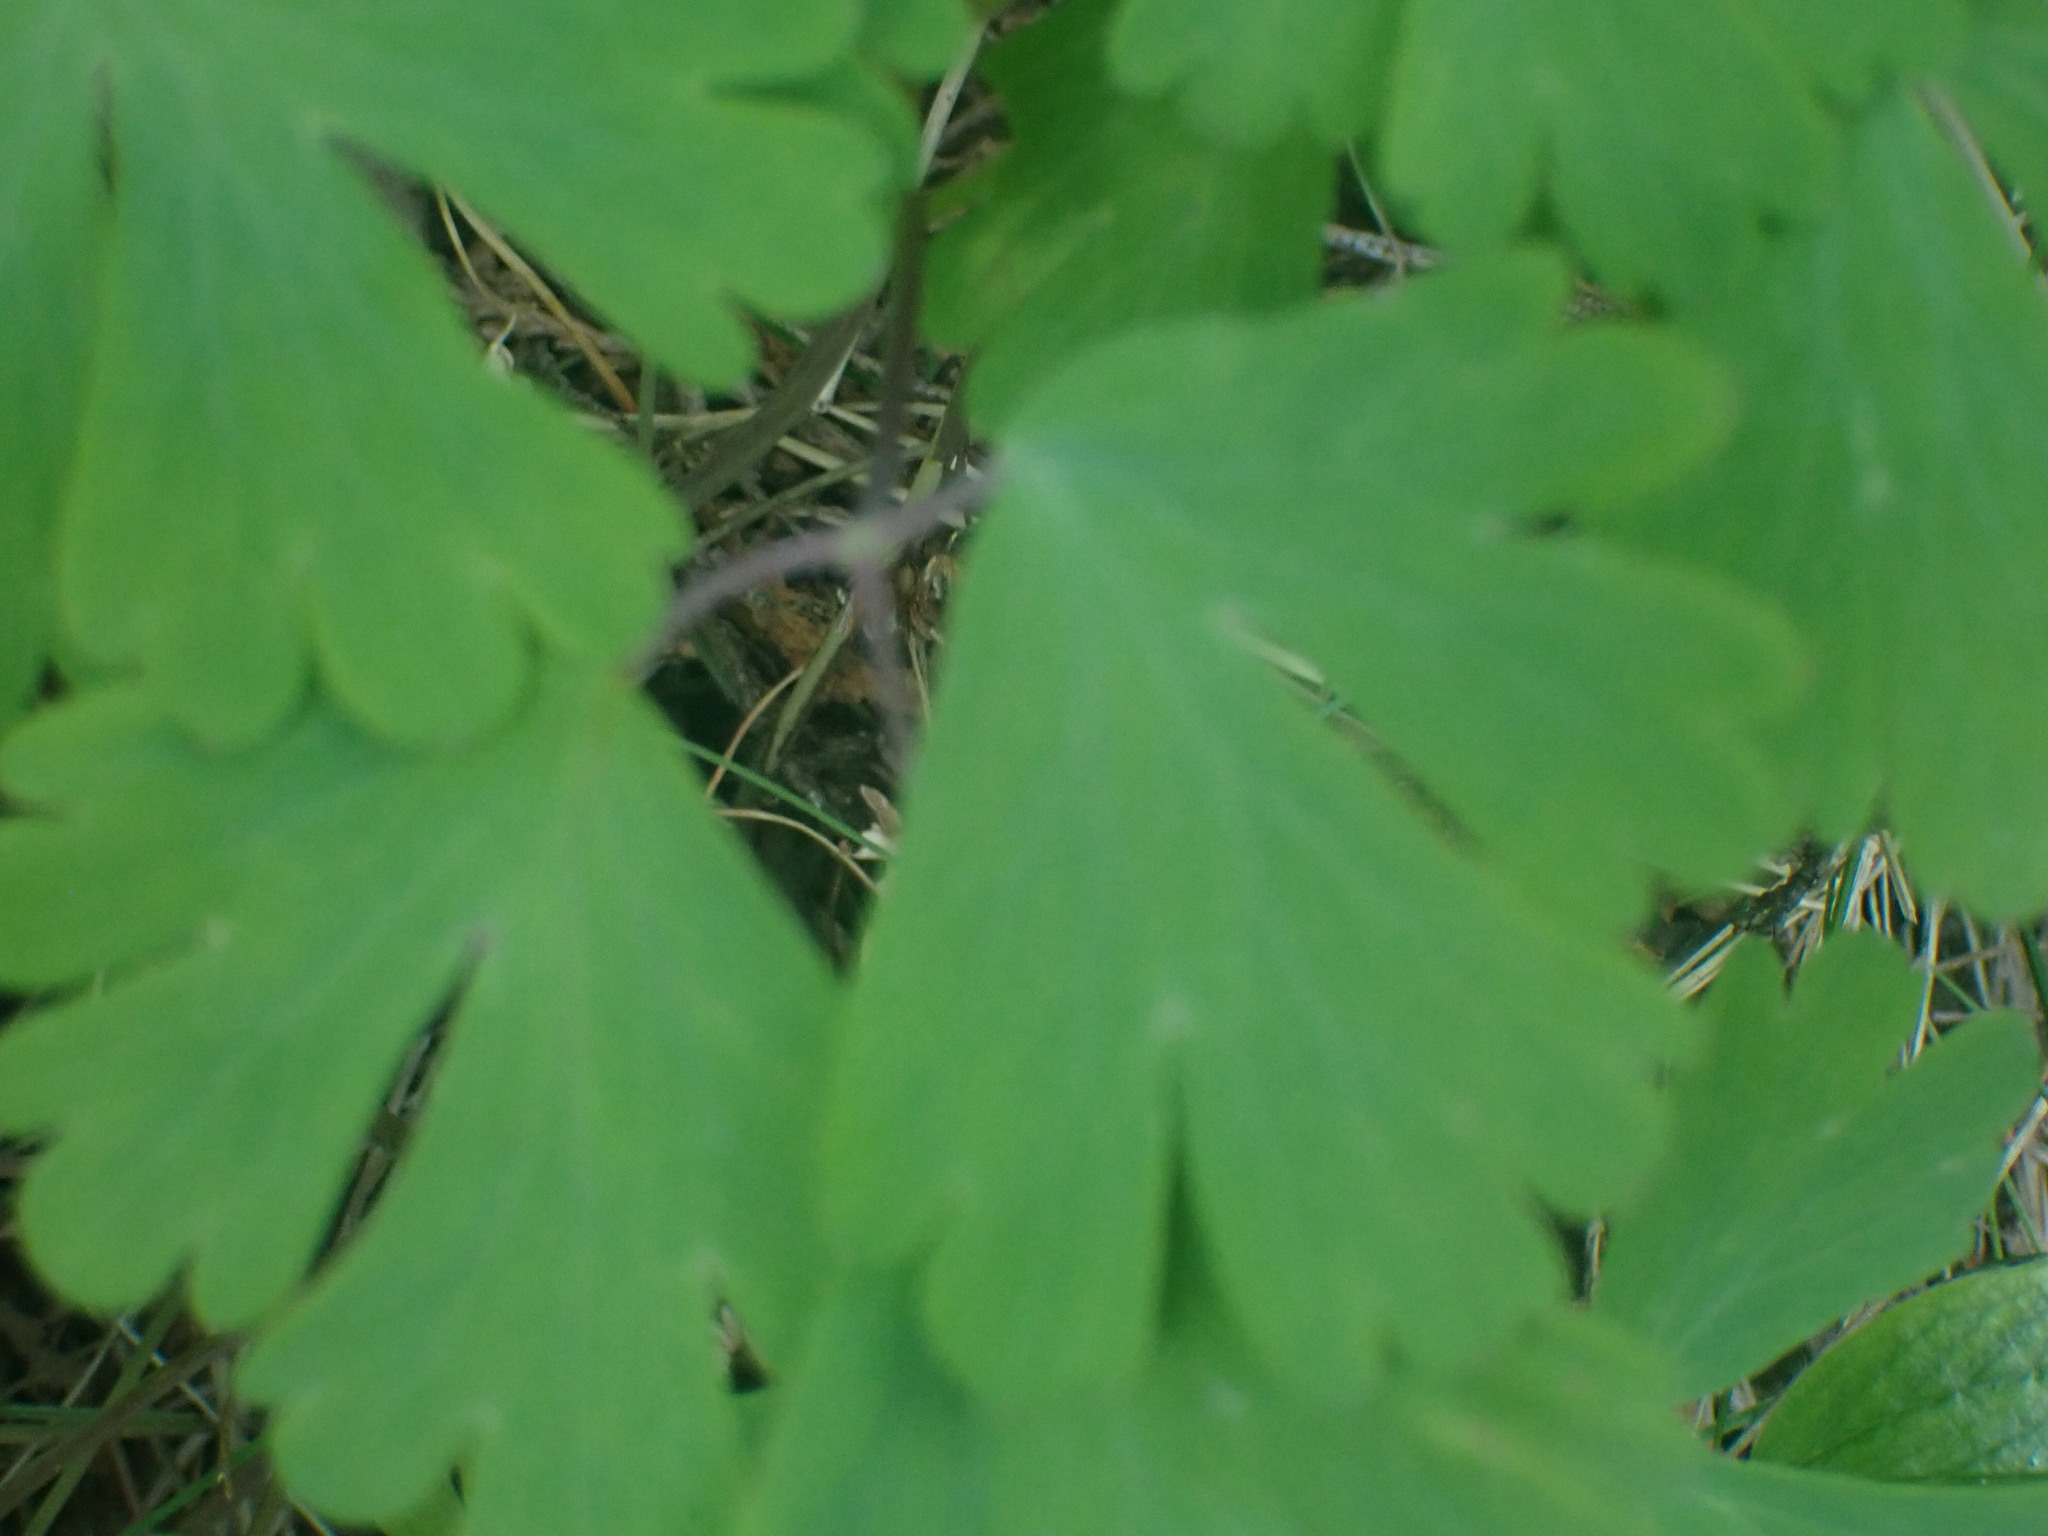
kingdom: Plantae
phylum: Tracheophyta
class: Magnoliopsida
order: Ranunculales
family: Ranunculaceae
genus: Aquilegia
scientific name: Aquilegia formosa
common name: Sitka columbine
